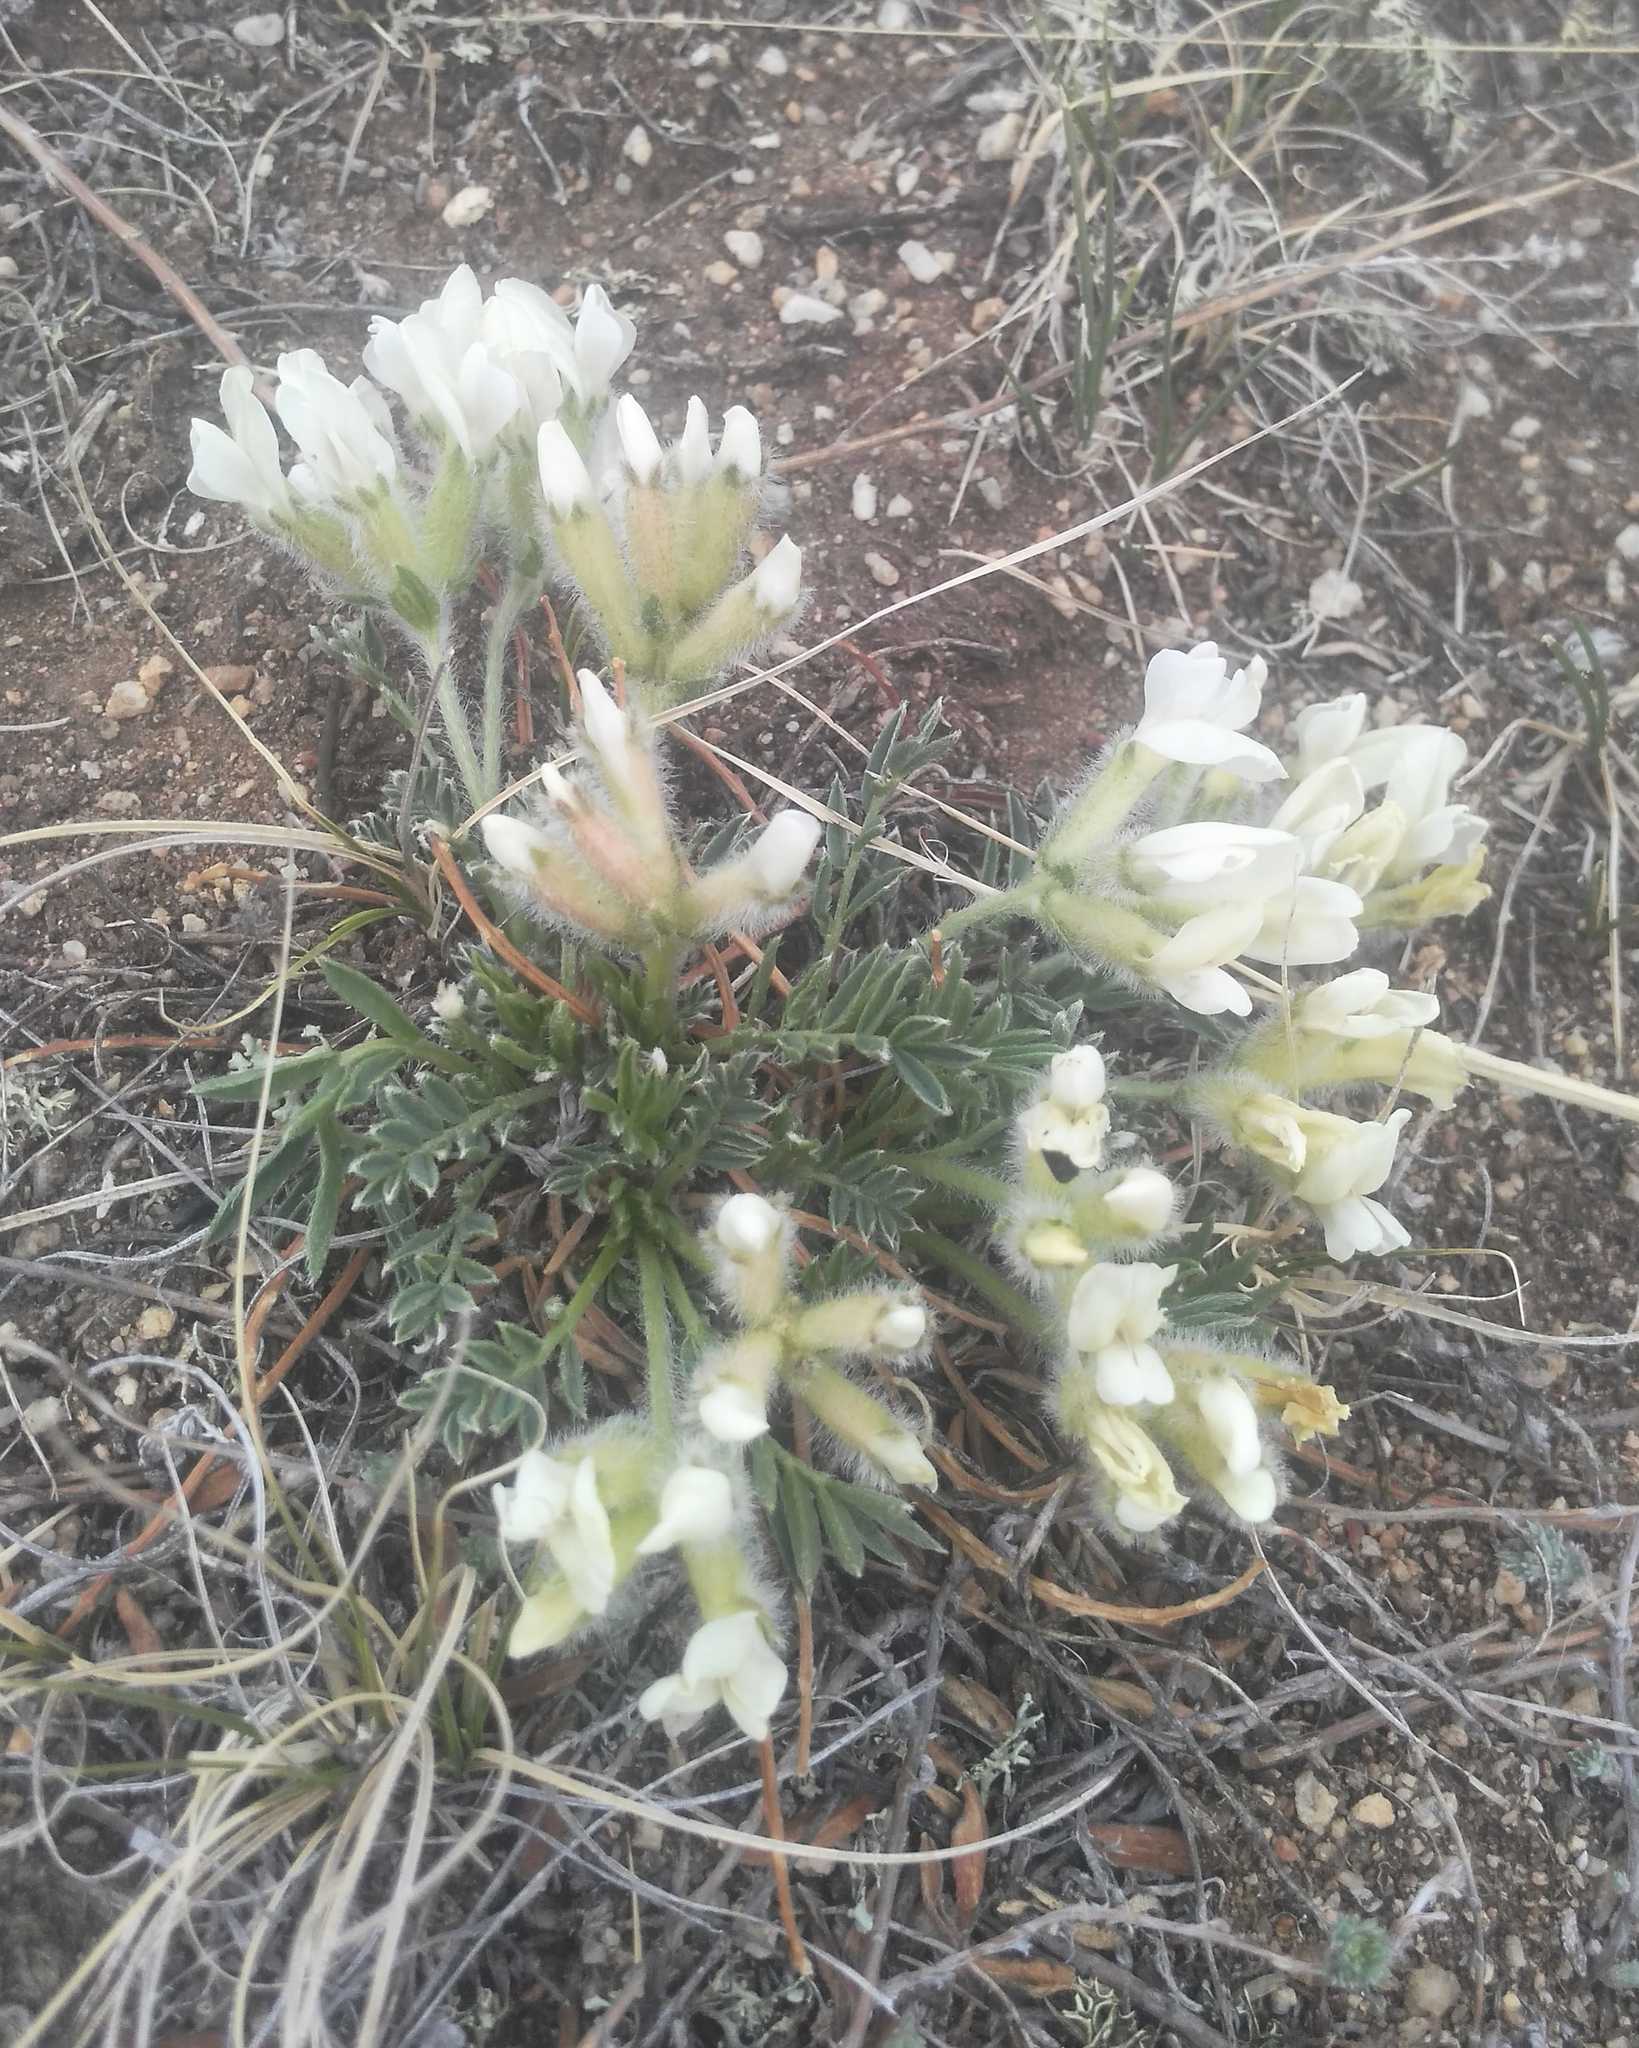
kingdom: Plantae
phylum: Tracheophyta
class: Magnoliopsida
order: Fabales
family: Fabaceae
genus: Oxytropis
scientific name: Oxytropis peschkovae
